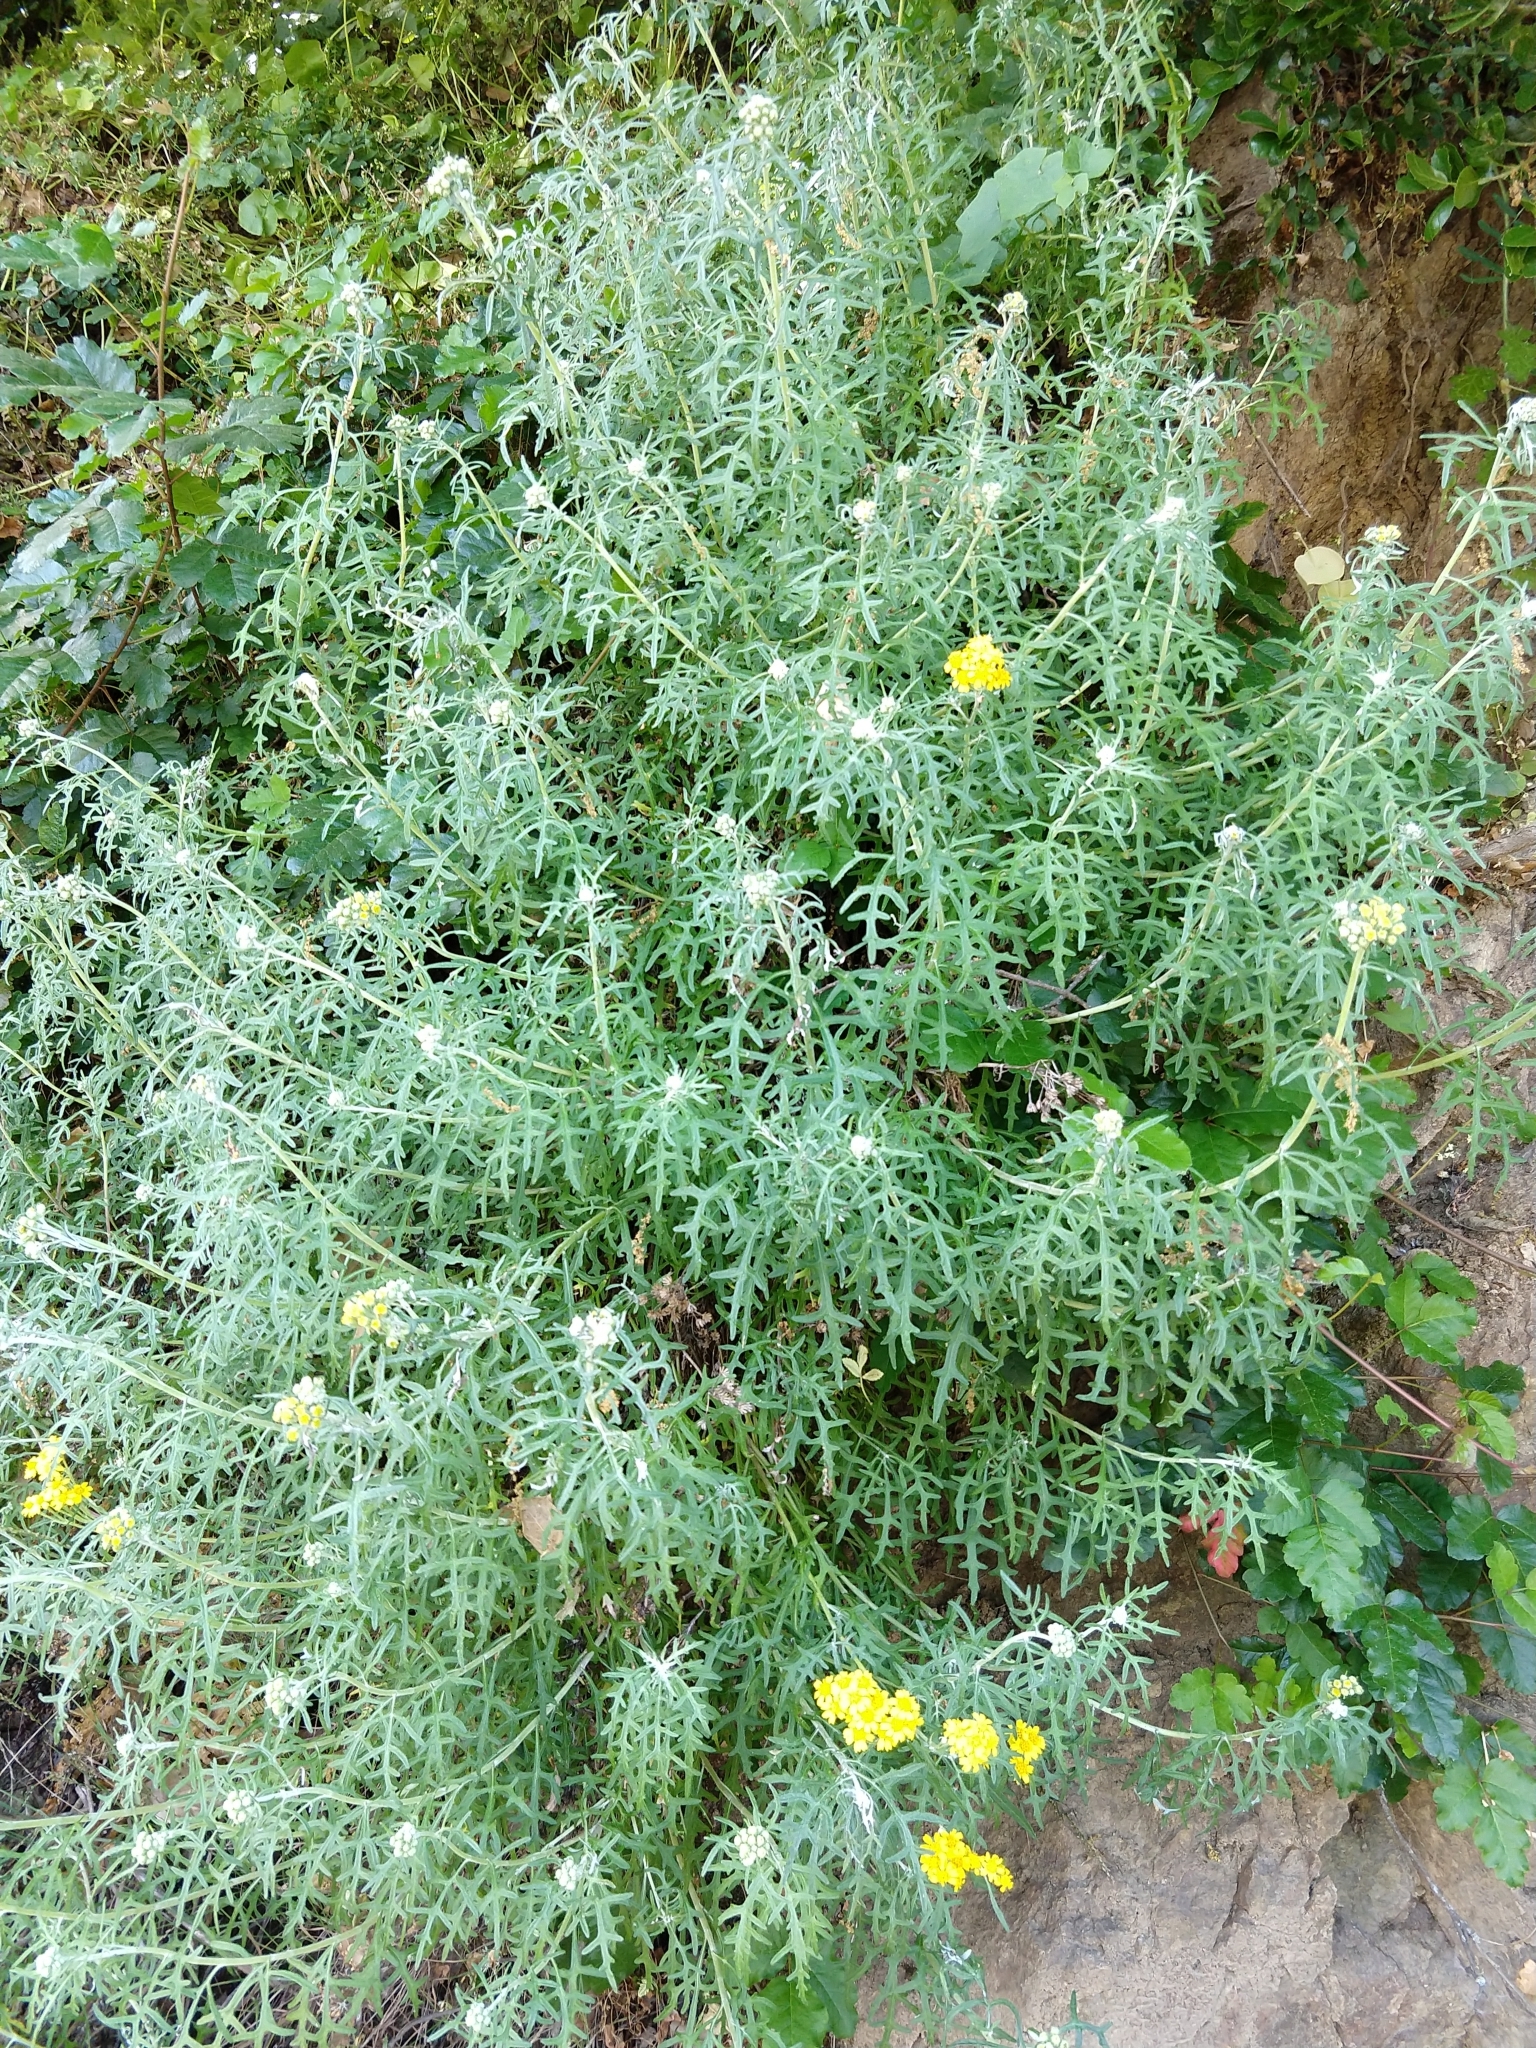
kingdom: Plantae
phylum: Tracheophyta
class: Magnoliopsida
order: Asterales
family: Asteraceae
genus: Eriophyllum
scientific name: Eriophyllum staechadifolium
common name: Lizardtail
